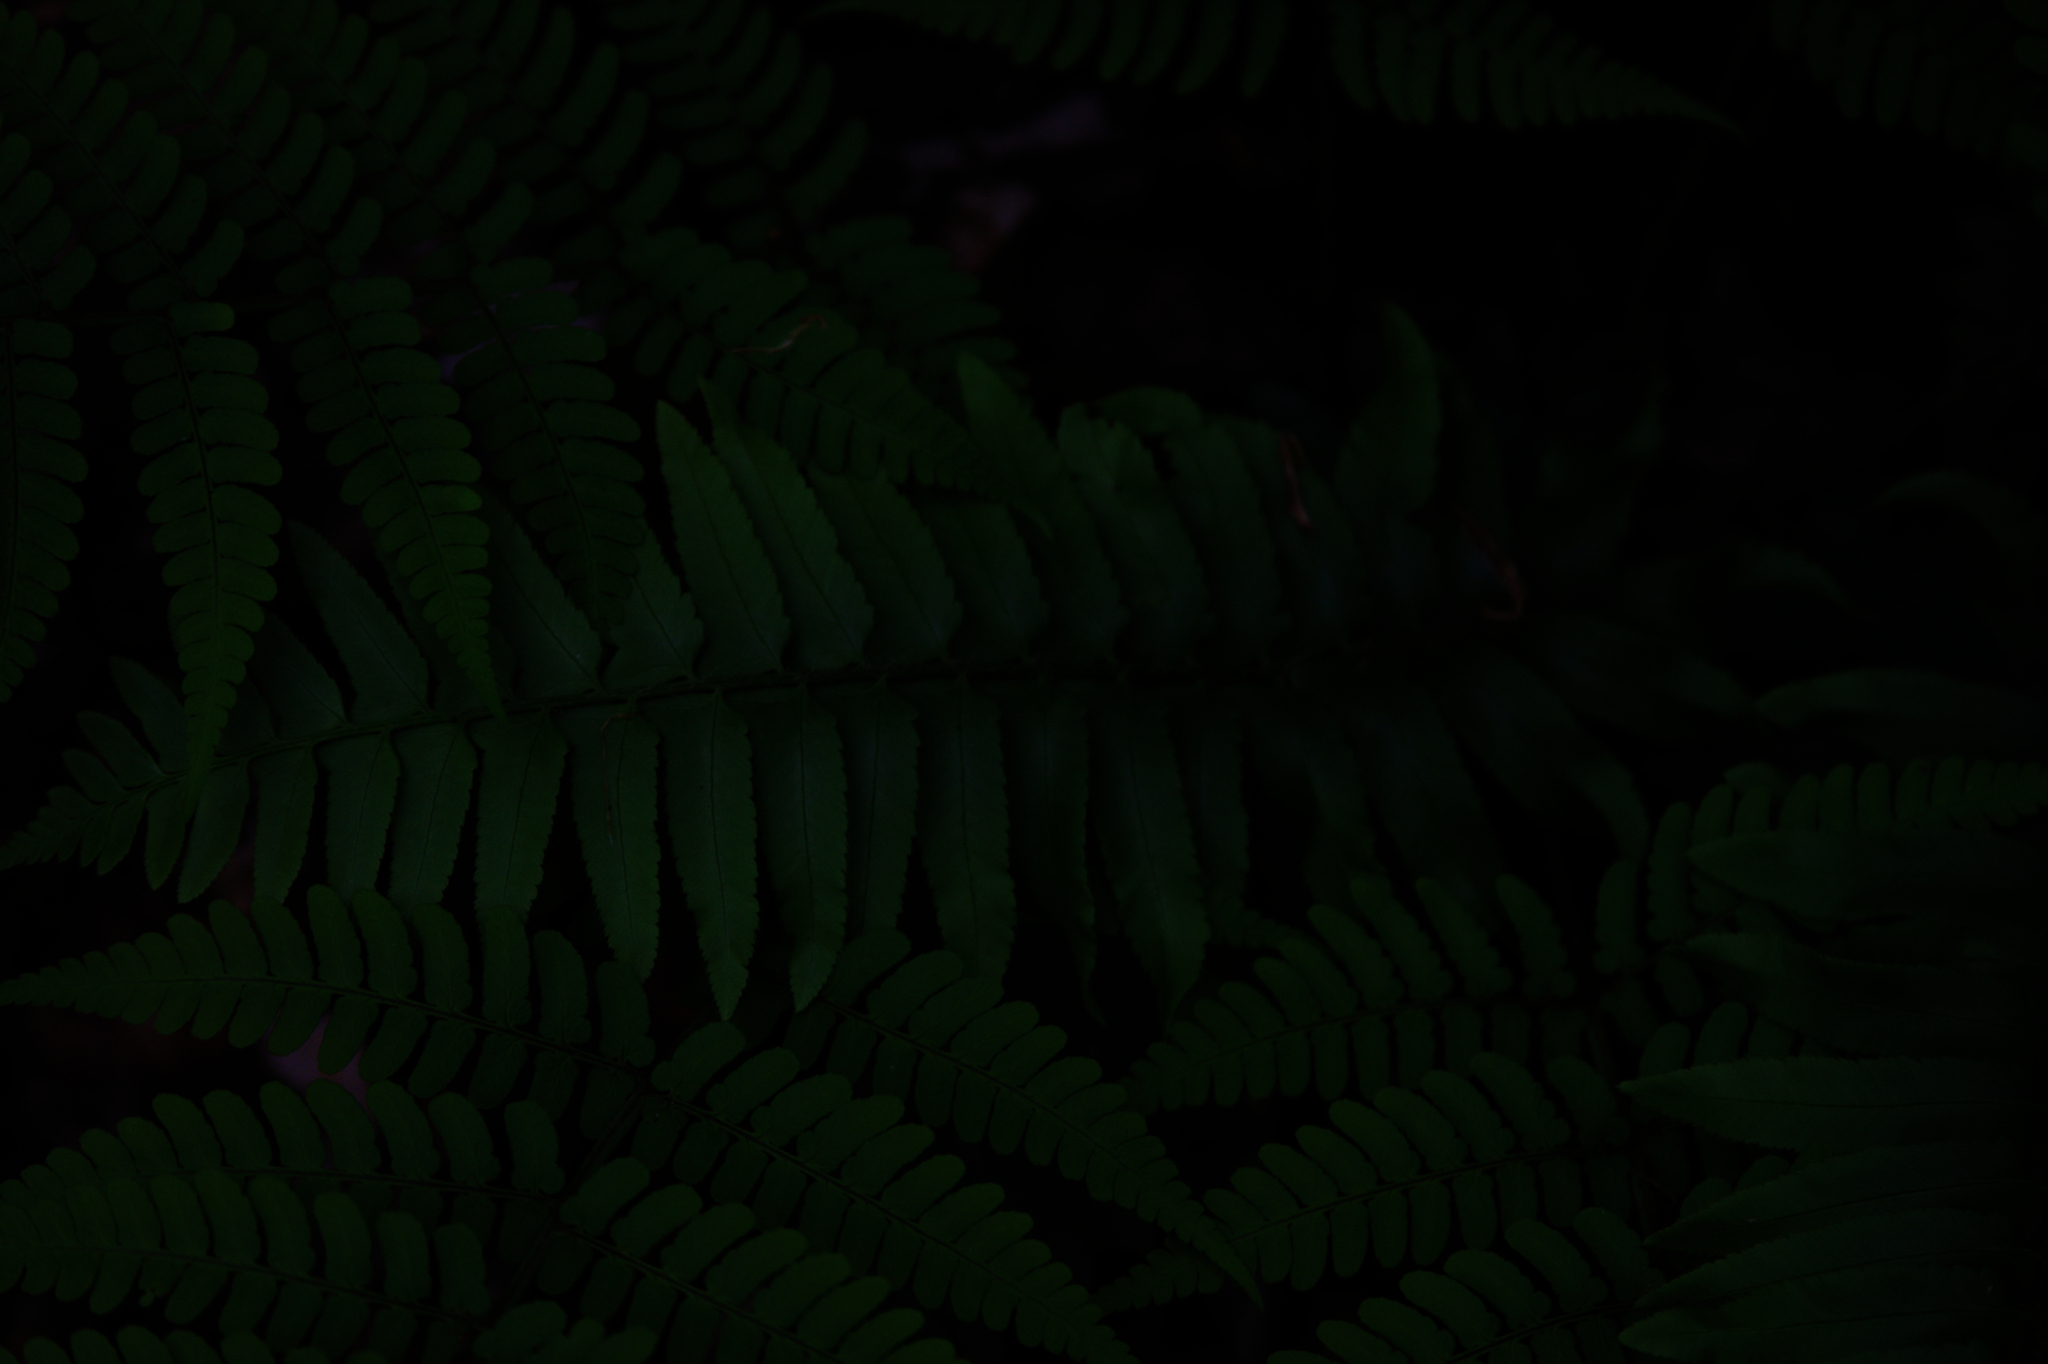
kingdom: Plantae
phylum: Tracheophyta
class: Polypodiopsida
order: Polypodiales
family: Dryopteridaceae
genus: Polystichum
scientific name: Polystichum acrostichoides
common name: Christmas fern
